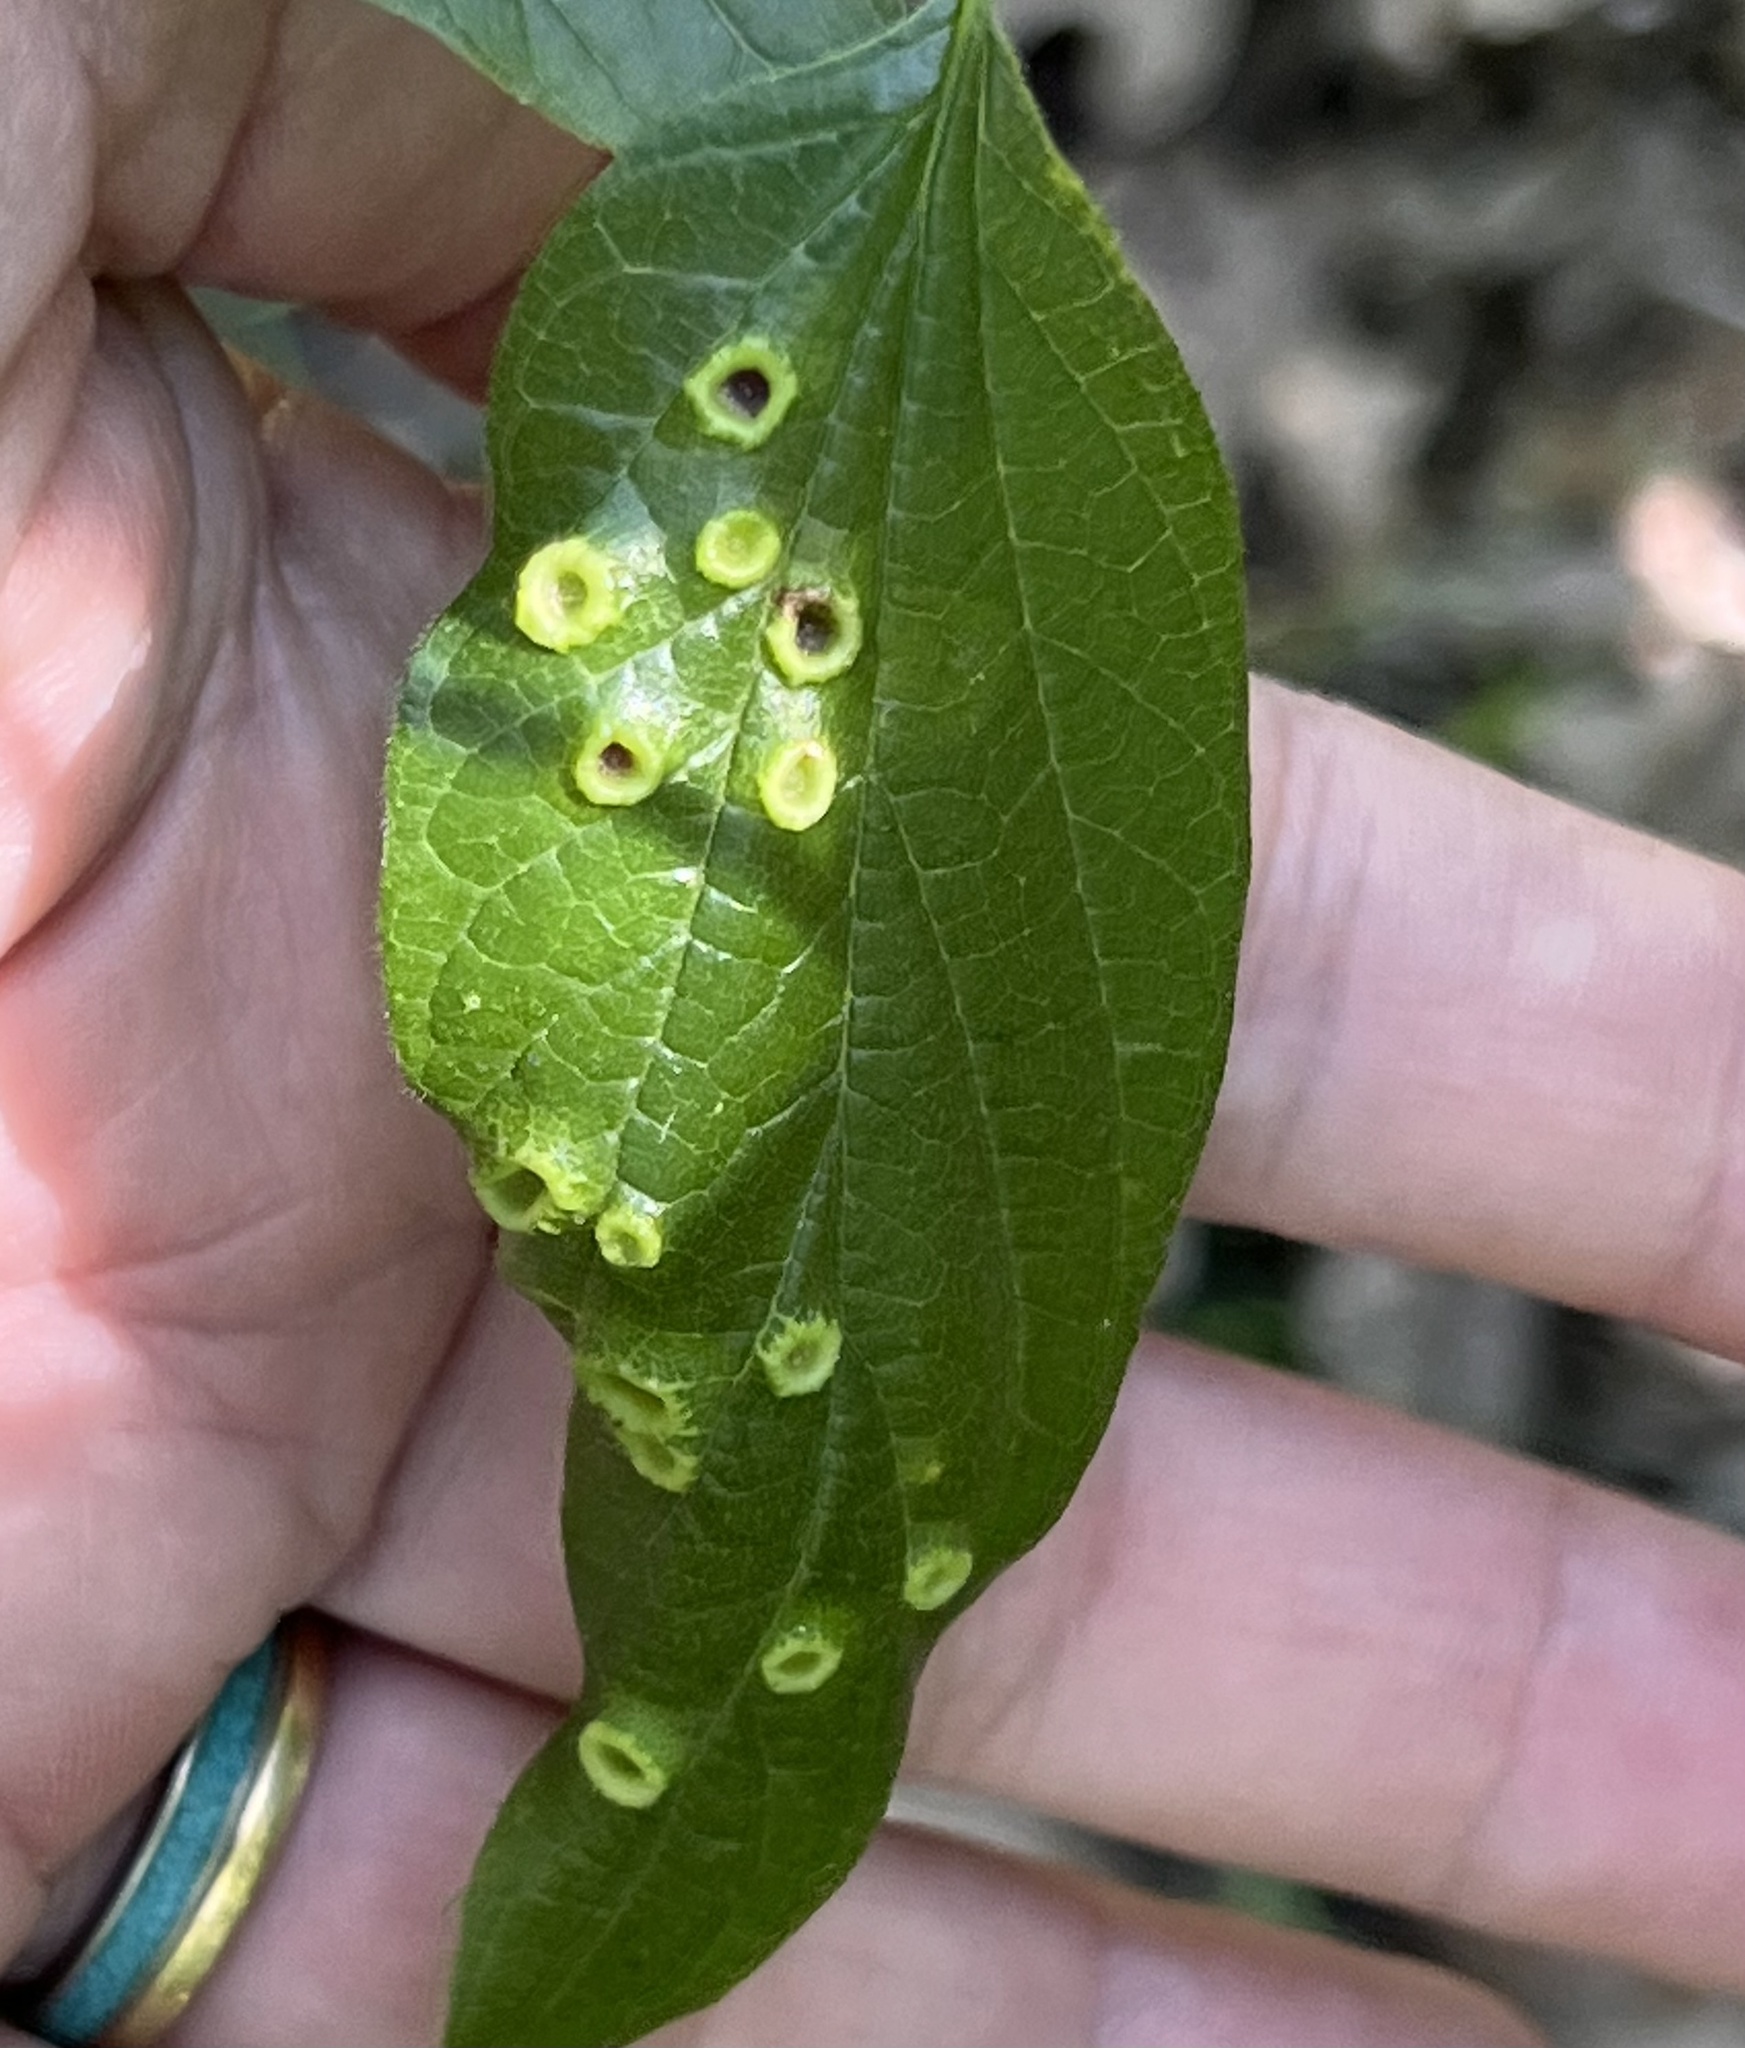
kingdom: Animalia
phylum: Arthropoda
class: Insecta
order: Hemiptera
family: Aphalaridae
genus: Pachypsylla
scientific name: Pachypsylla celtidismamma
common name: Hackberry nipplegall psyllid
